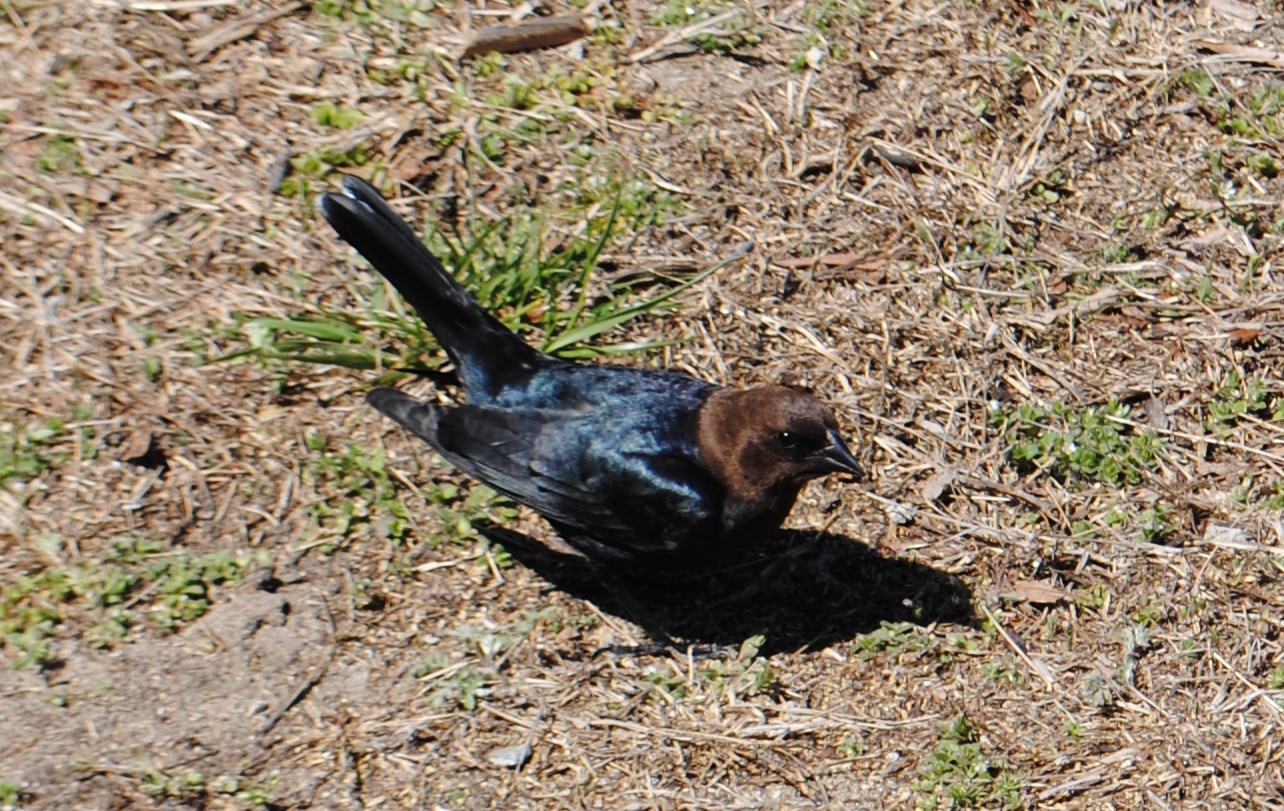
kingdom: Animalia
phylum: Chordata
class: Aves
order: Passeriformes
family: Icteridae
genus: Molothrus
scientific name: Molothrus ater
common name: Brown-headed cowbird
